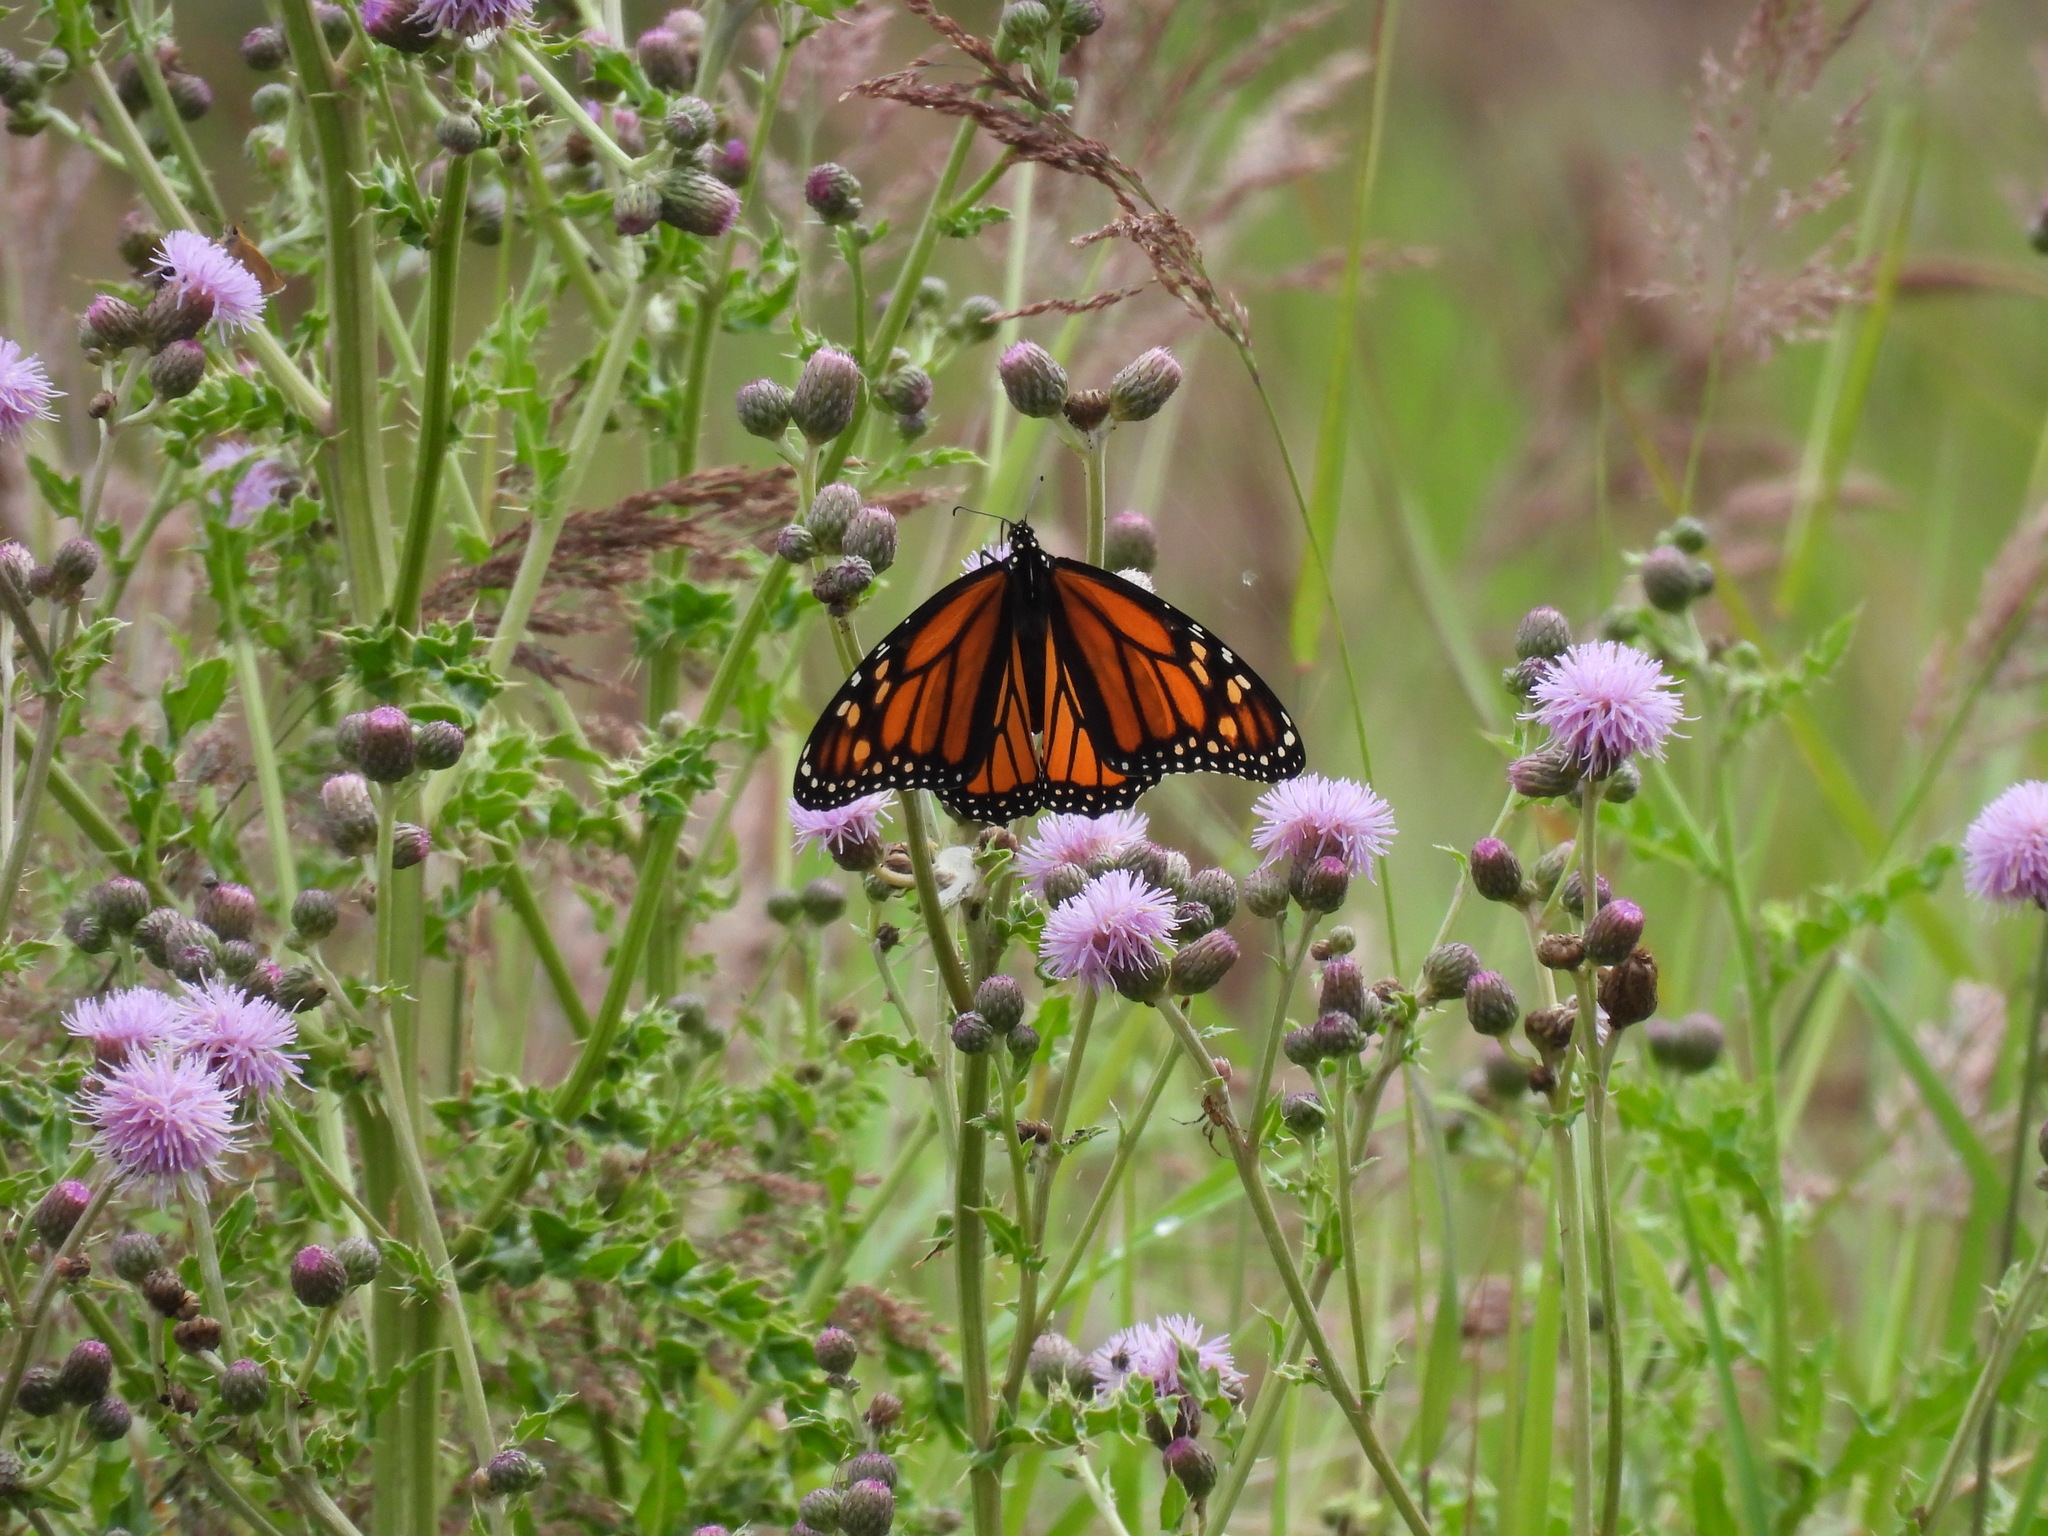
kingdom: Animalia
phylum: Arthropoda
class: Insecta
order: Lepidoptera
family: Nymphalidae
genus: Danaus
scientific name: Danaus plexippus
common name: Monarch
